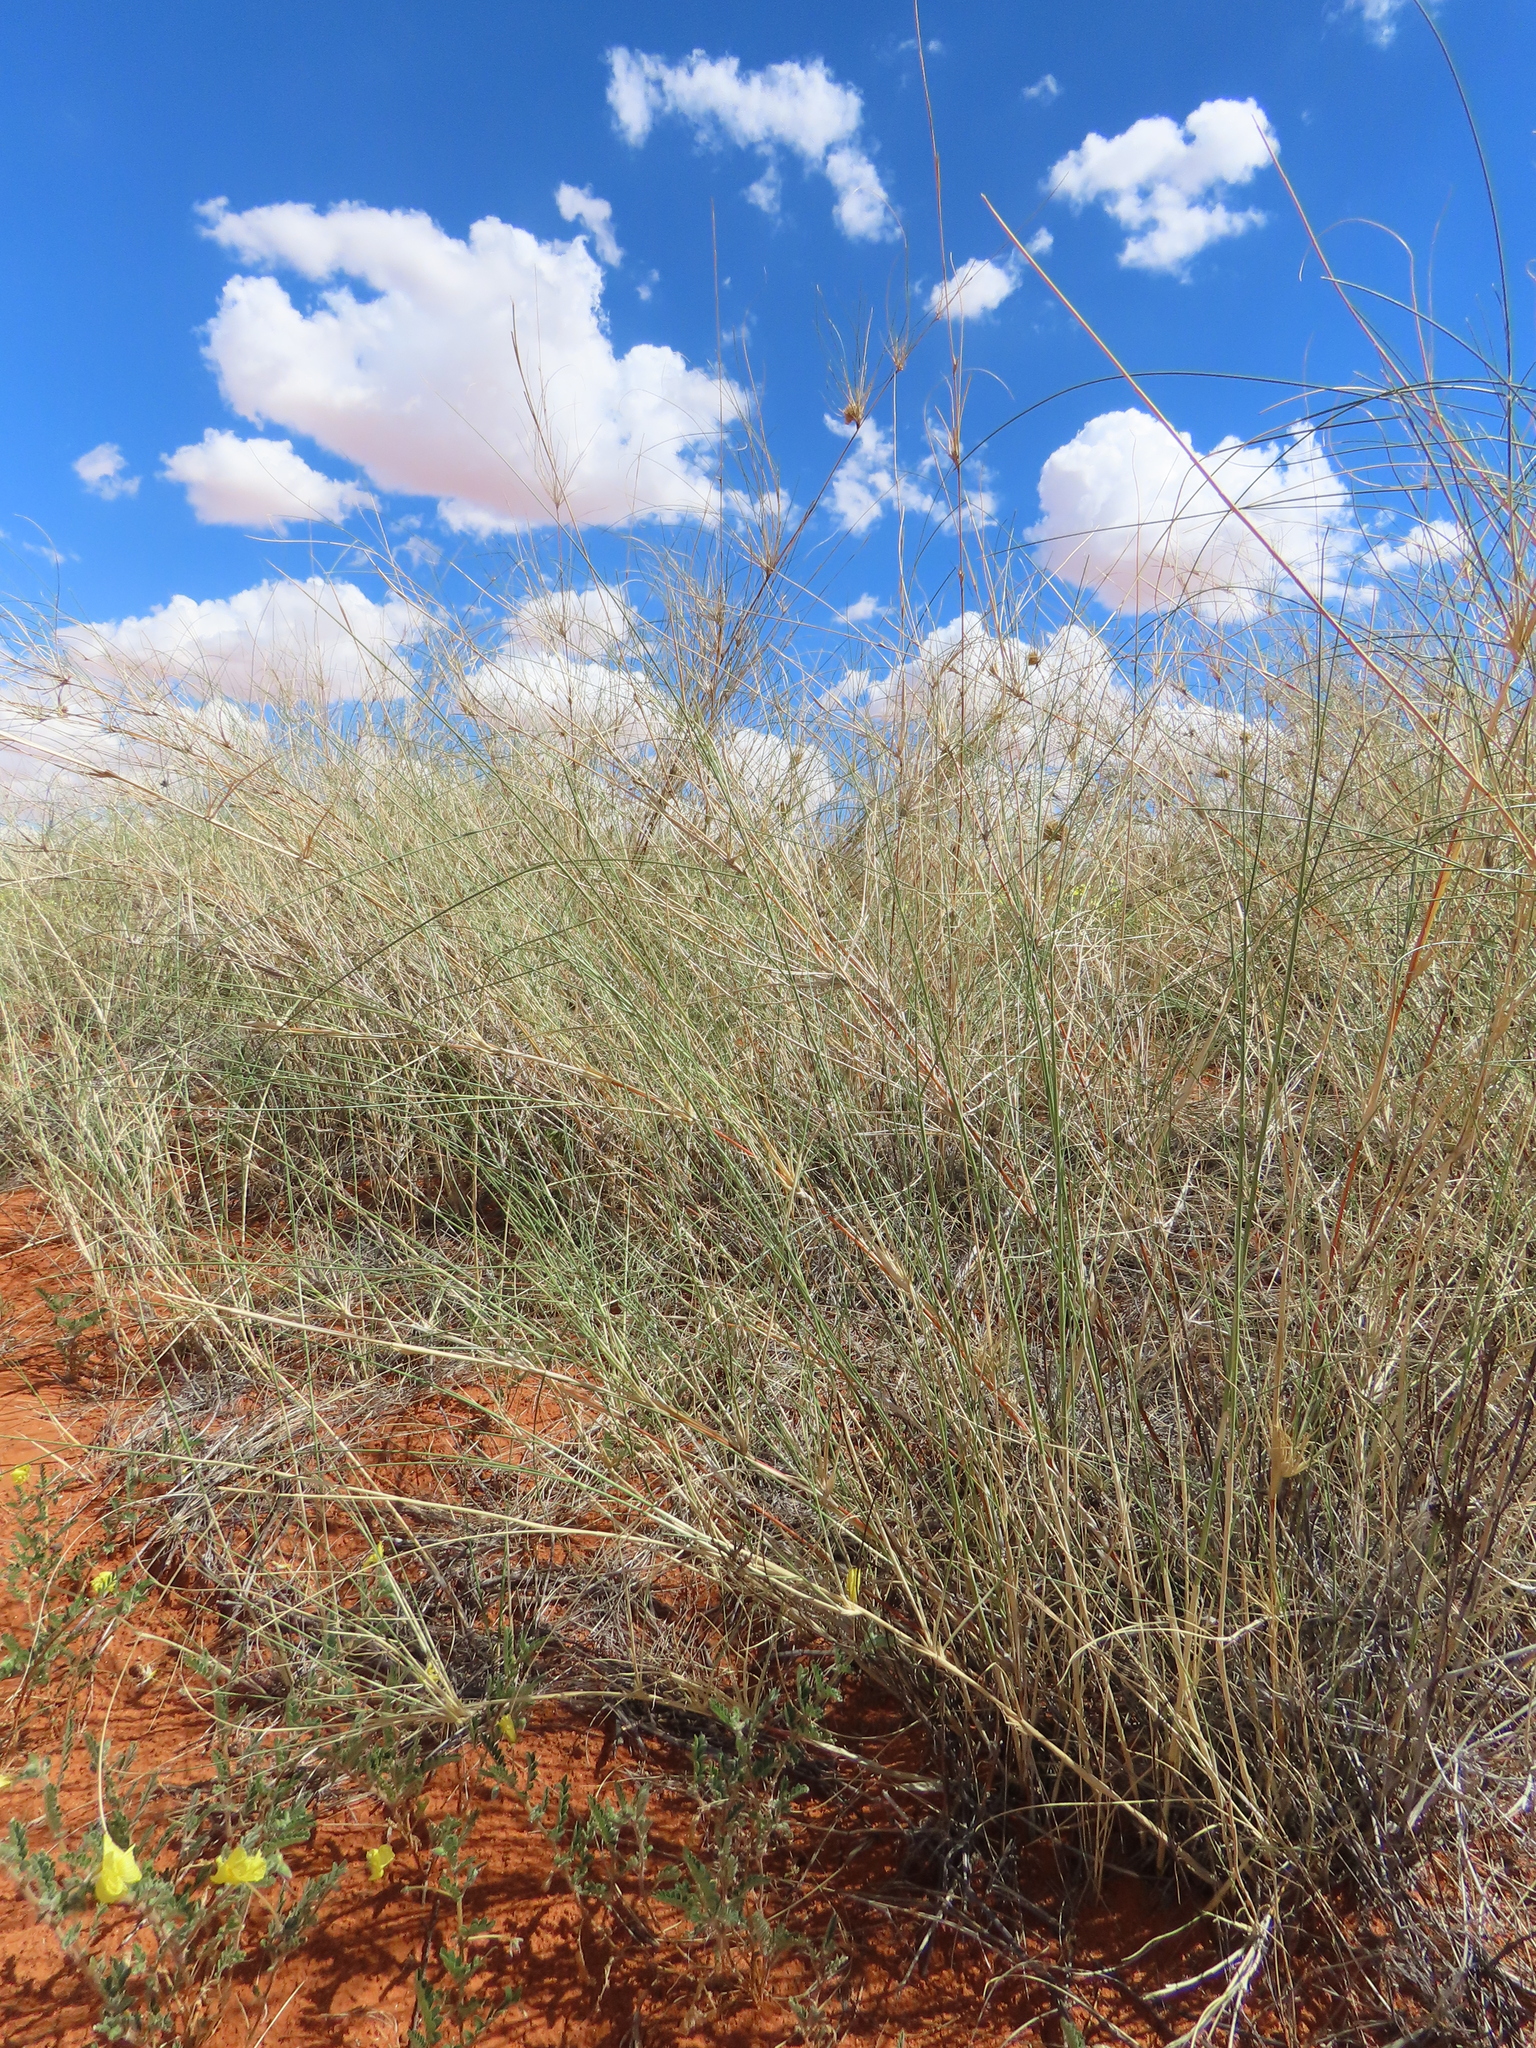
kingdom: Plantae
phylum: Tracheophyta
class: Liliopsida
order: Poales
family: Poaceae
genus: Stipagrostis
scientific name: Stipagrostis amabilis
